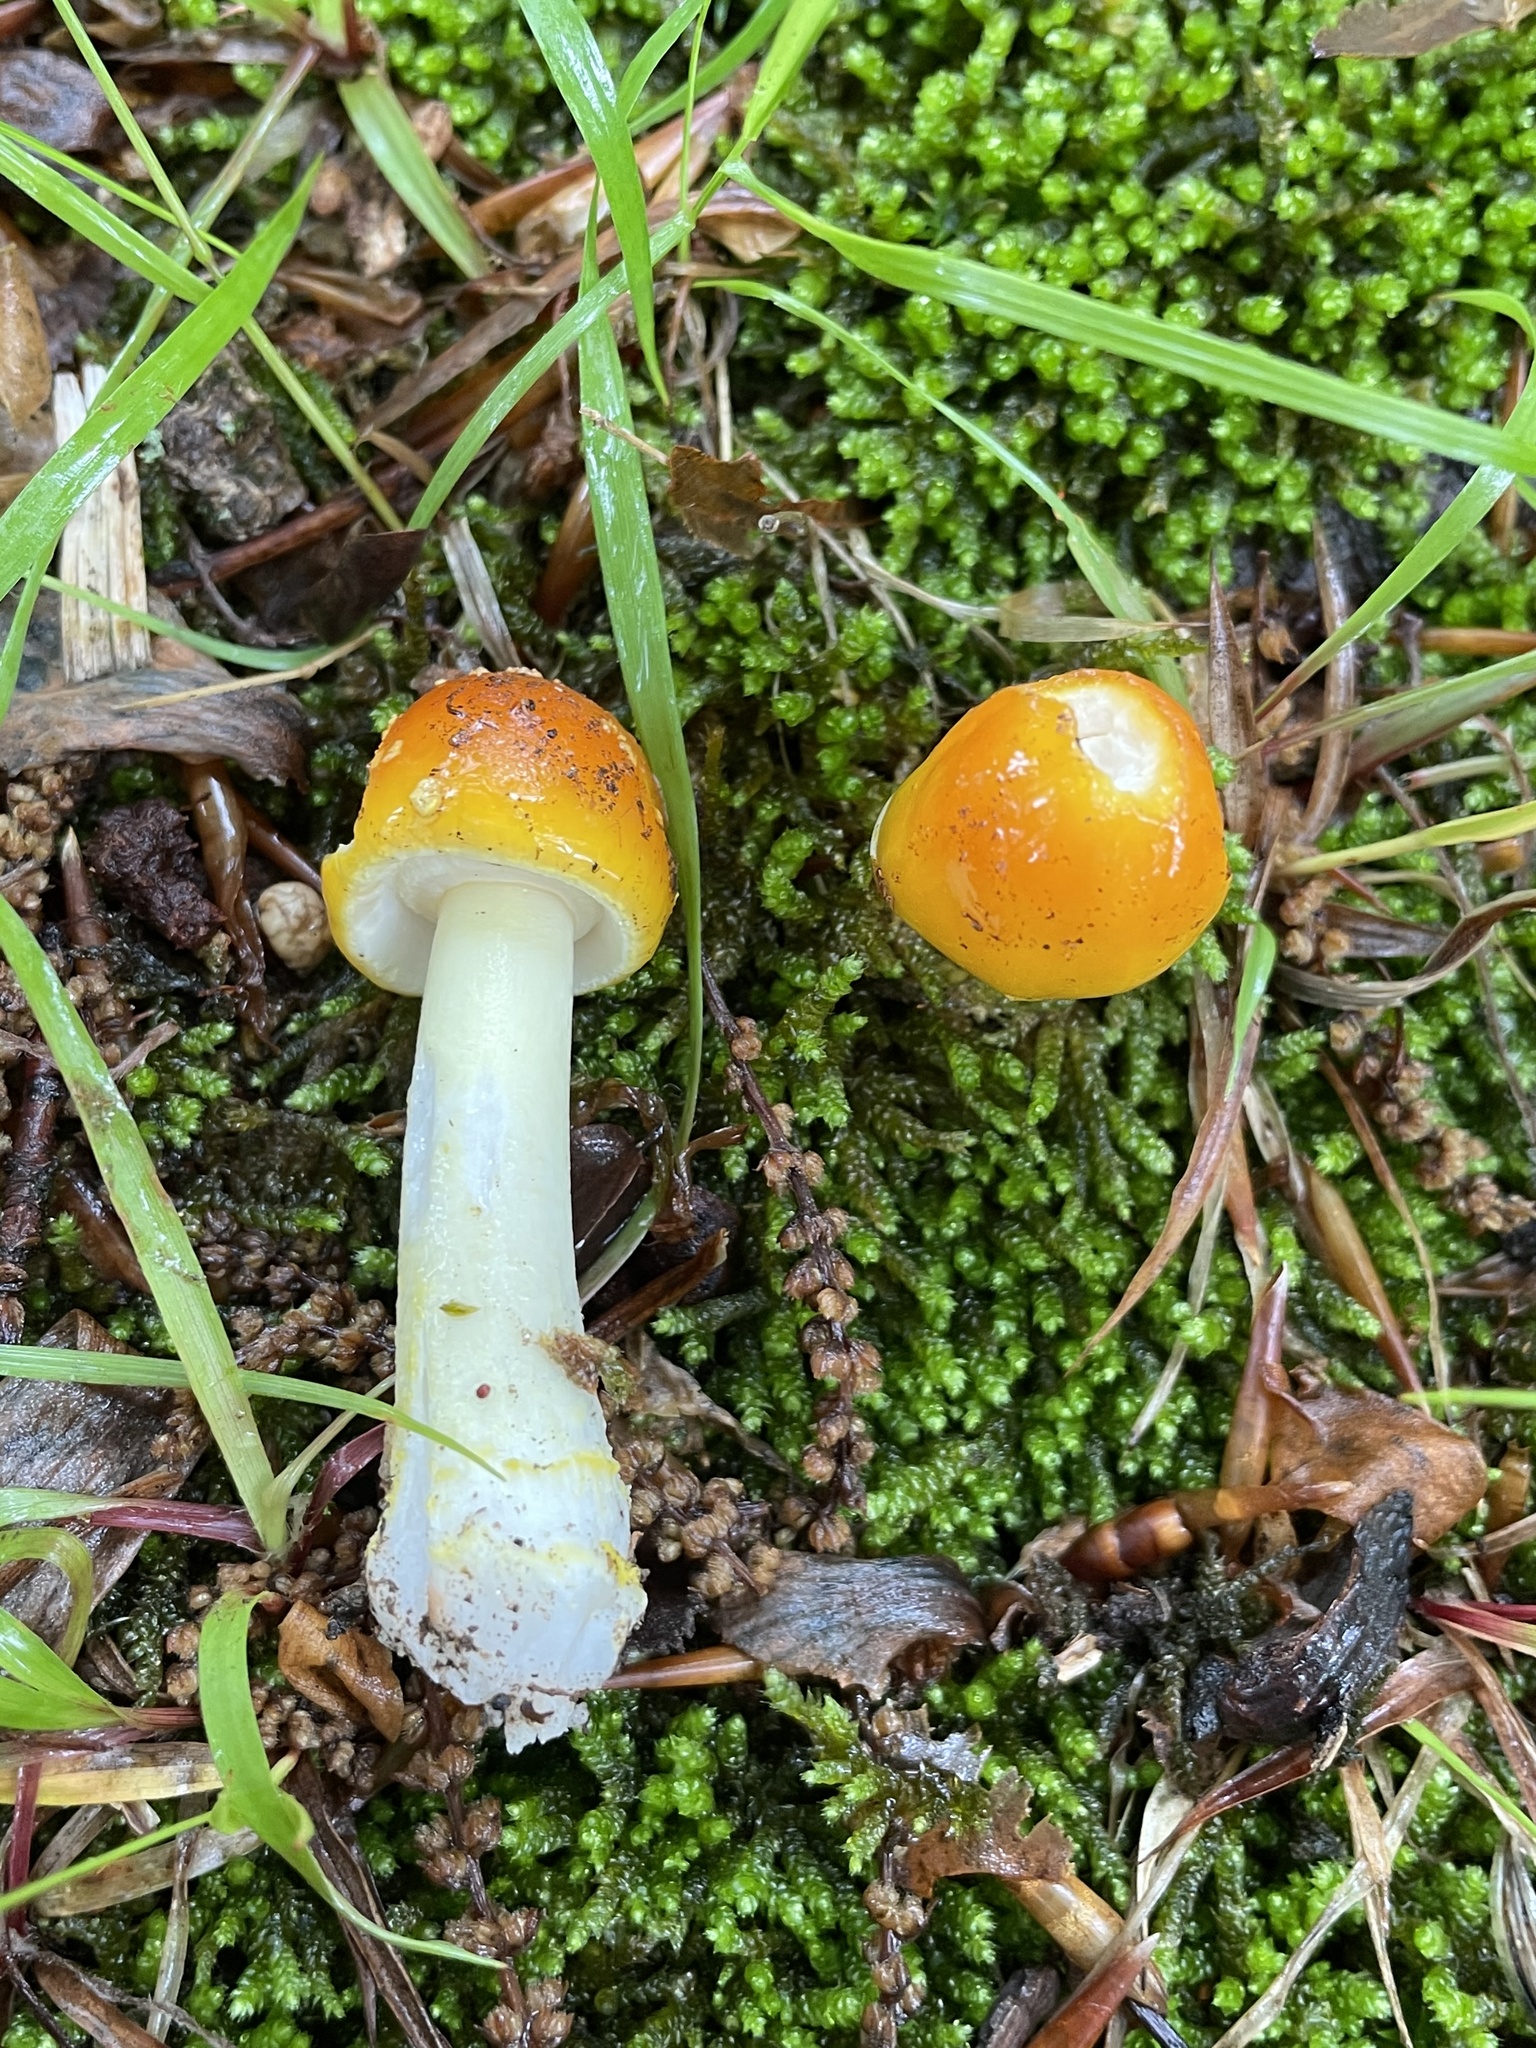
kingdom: Fungi
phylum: Basidiomycota
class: Agaricomycetes
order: Agaricales
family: Amanitaceae
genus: Amanita
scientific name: Amanita flavoconia
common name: Yellow patches
